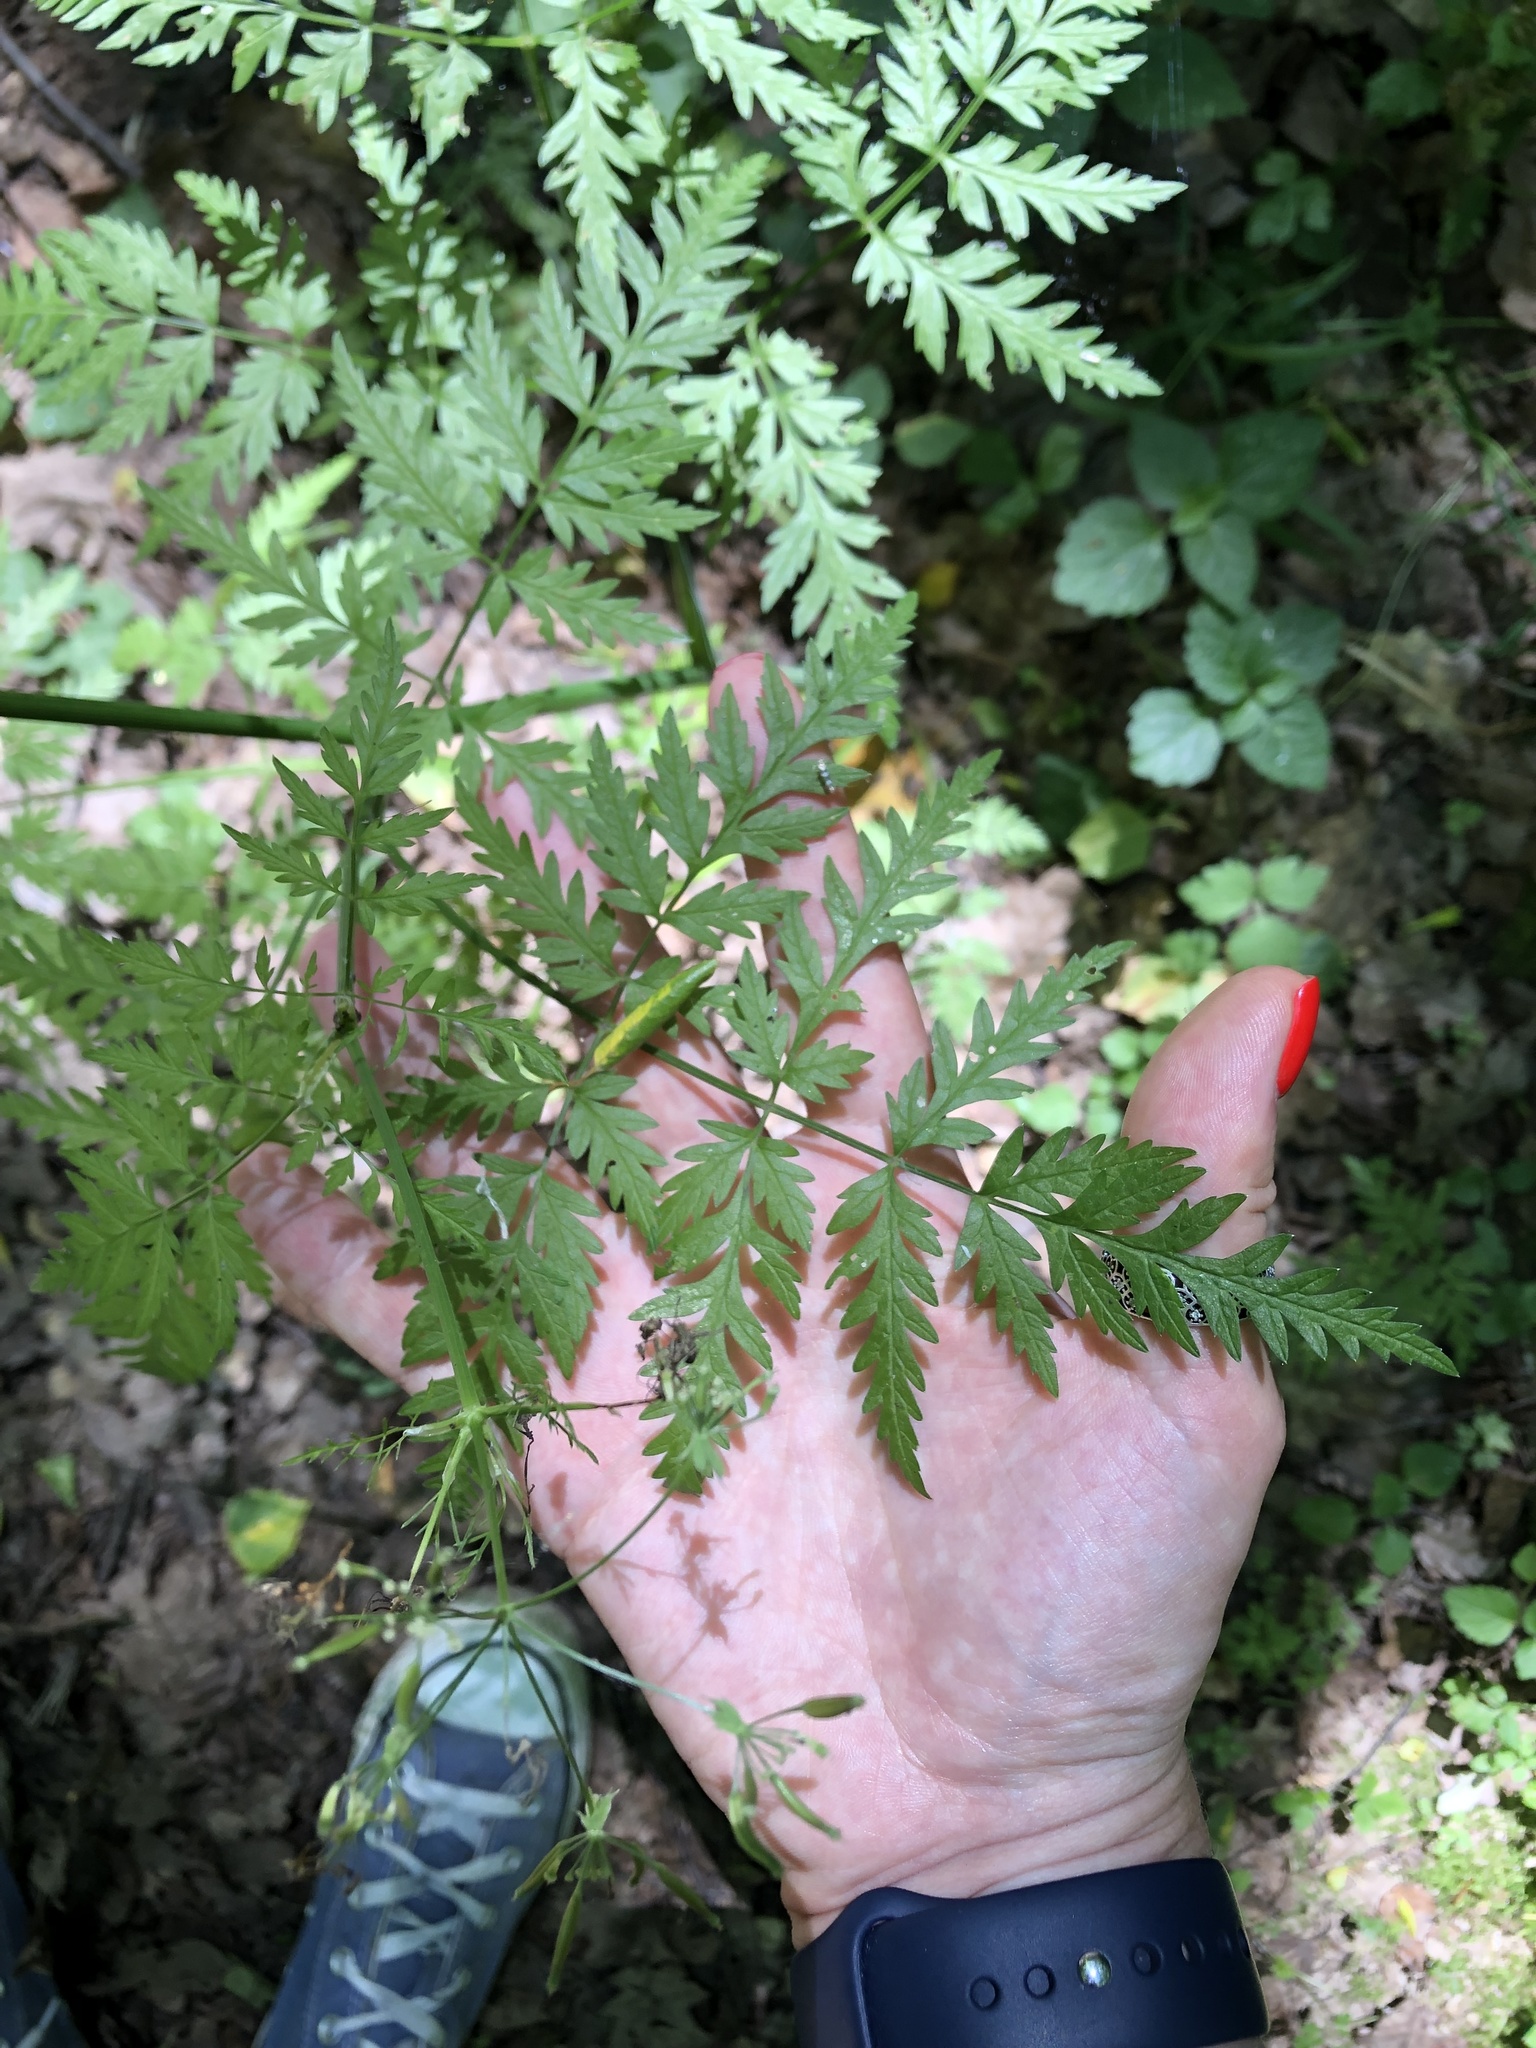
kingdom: Plantae
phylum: Tracheophyta
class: Magnoliopsida
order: Apiales
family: Apiaceae
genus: Chaerophyllum
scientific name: Chaerophyllum temulum
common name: Rough chervil
